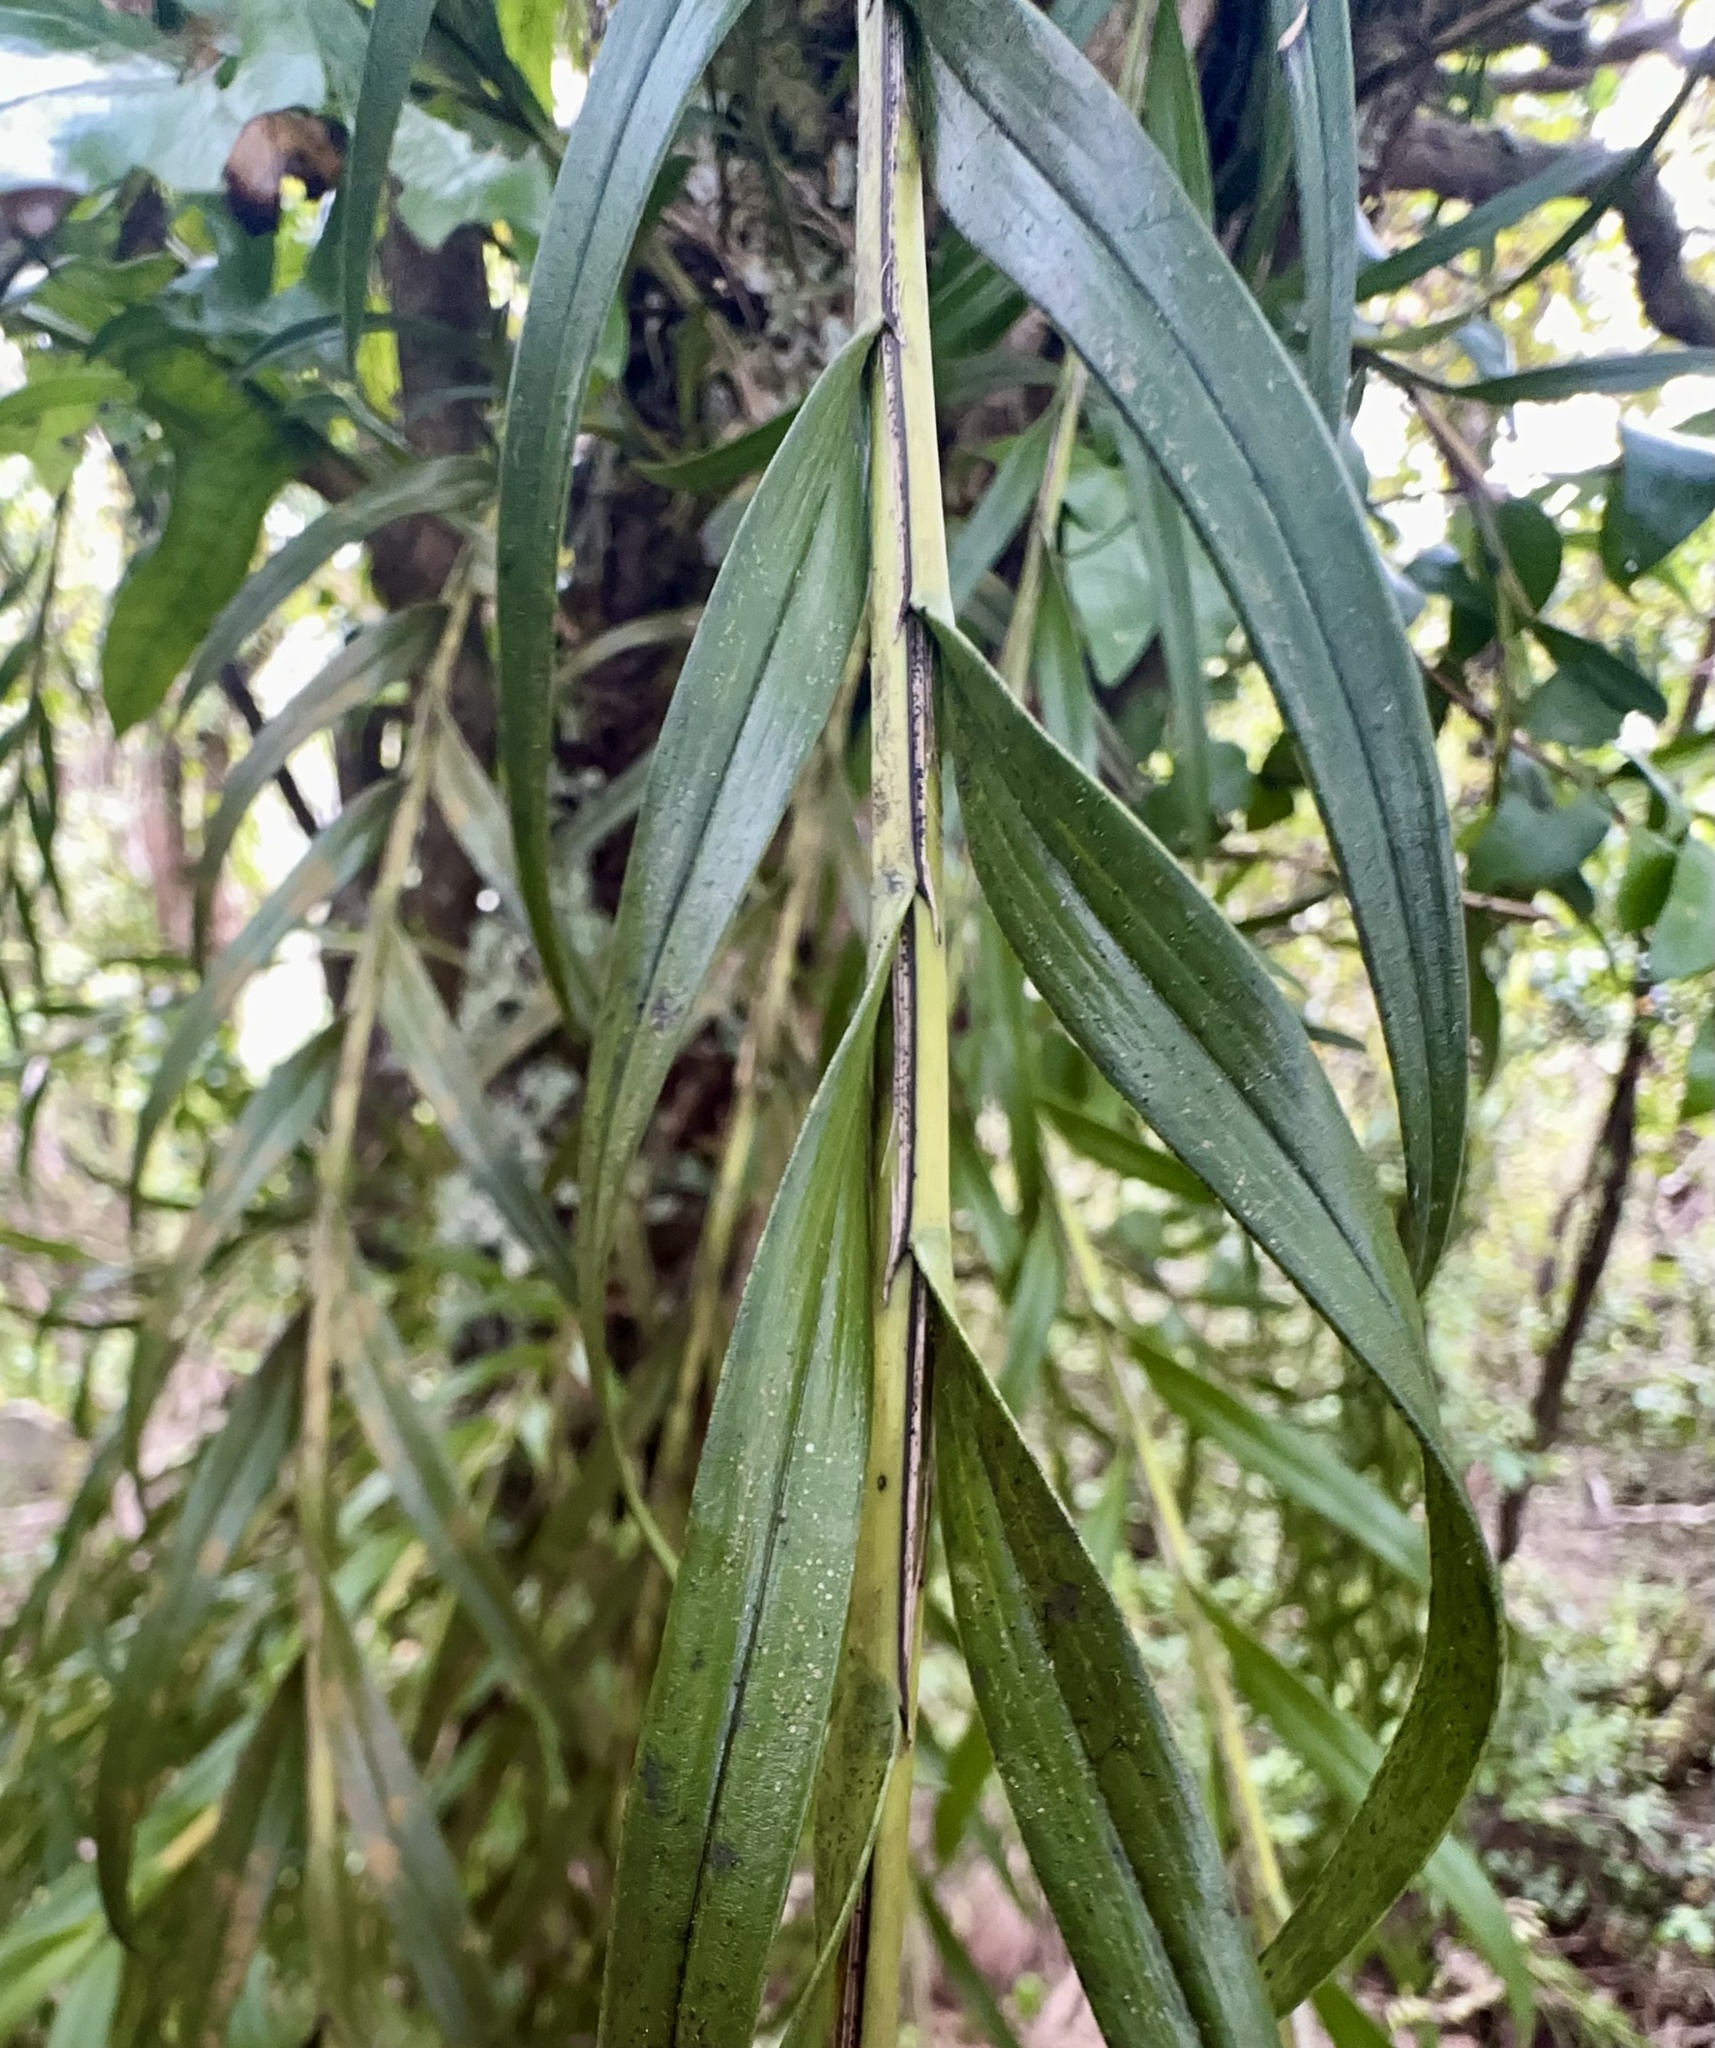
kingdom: Plantae
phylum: Tracheophyta
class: Liliopsida
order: Asparagales
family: Orchidaceae
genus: Earina
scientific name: Earina autumnalis
